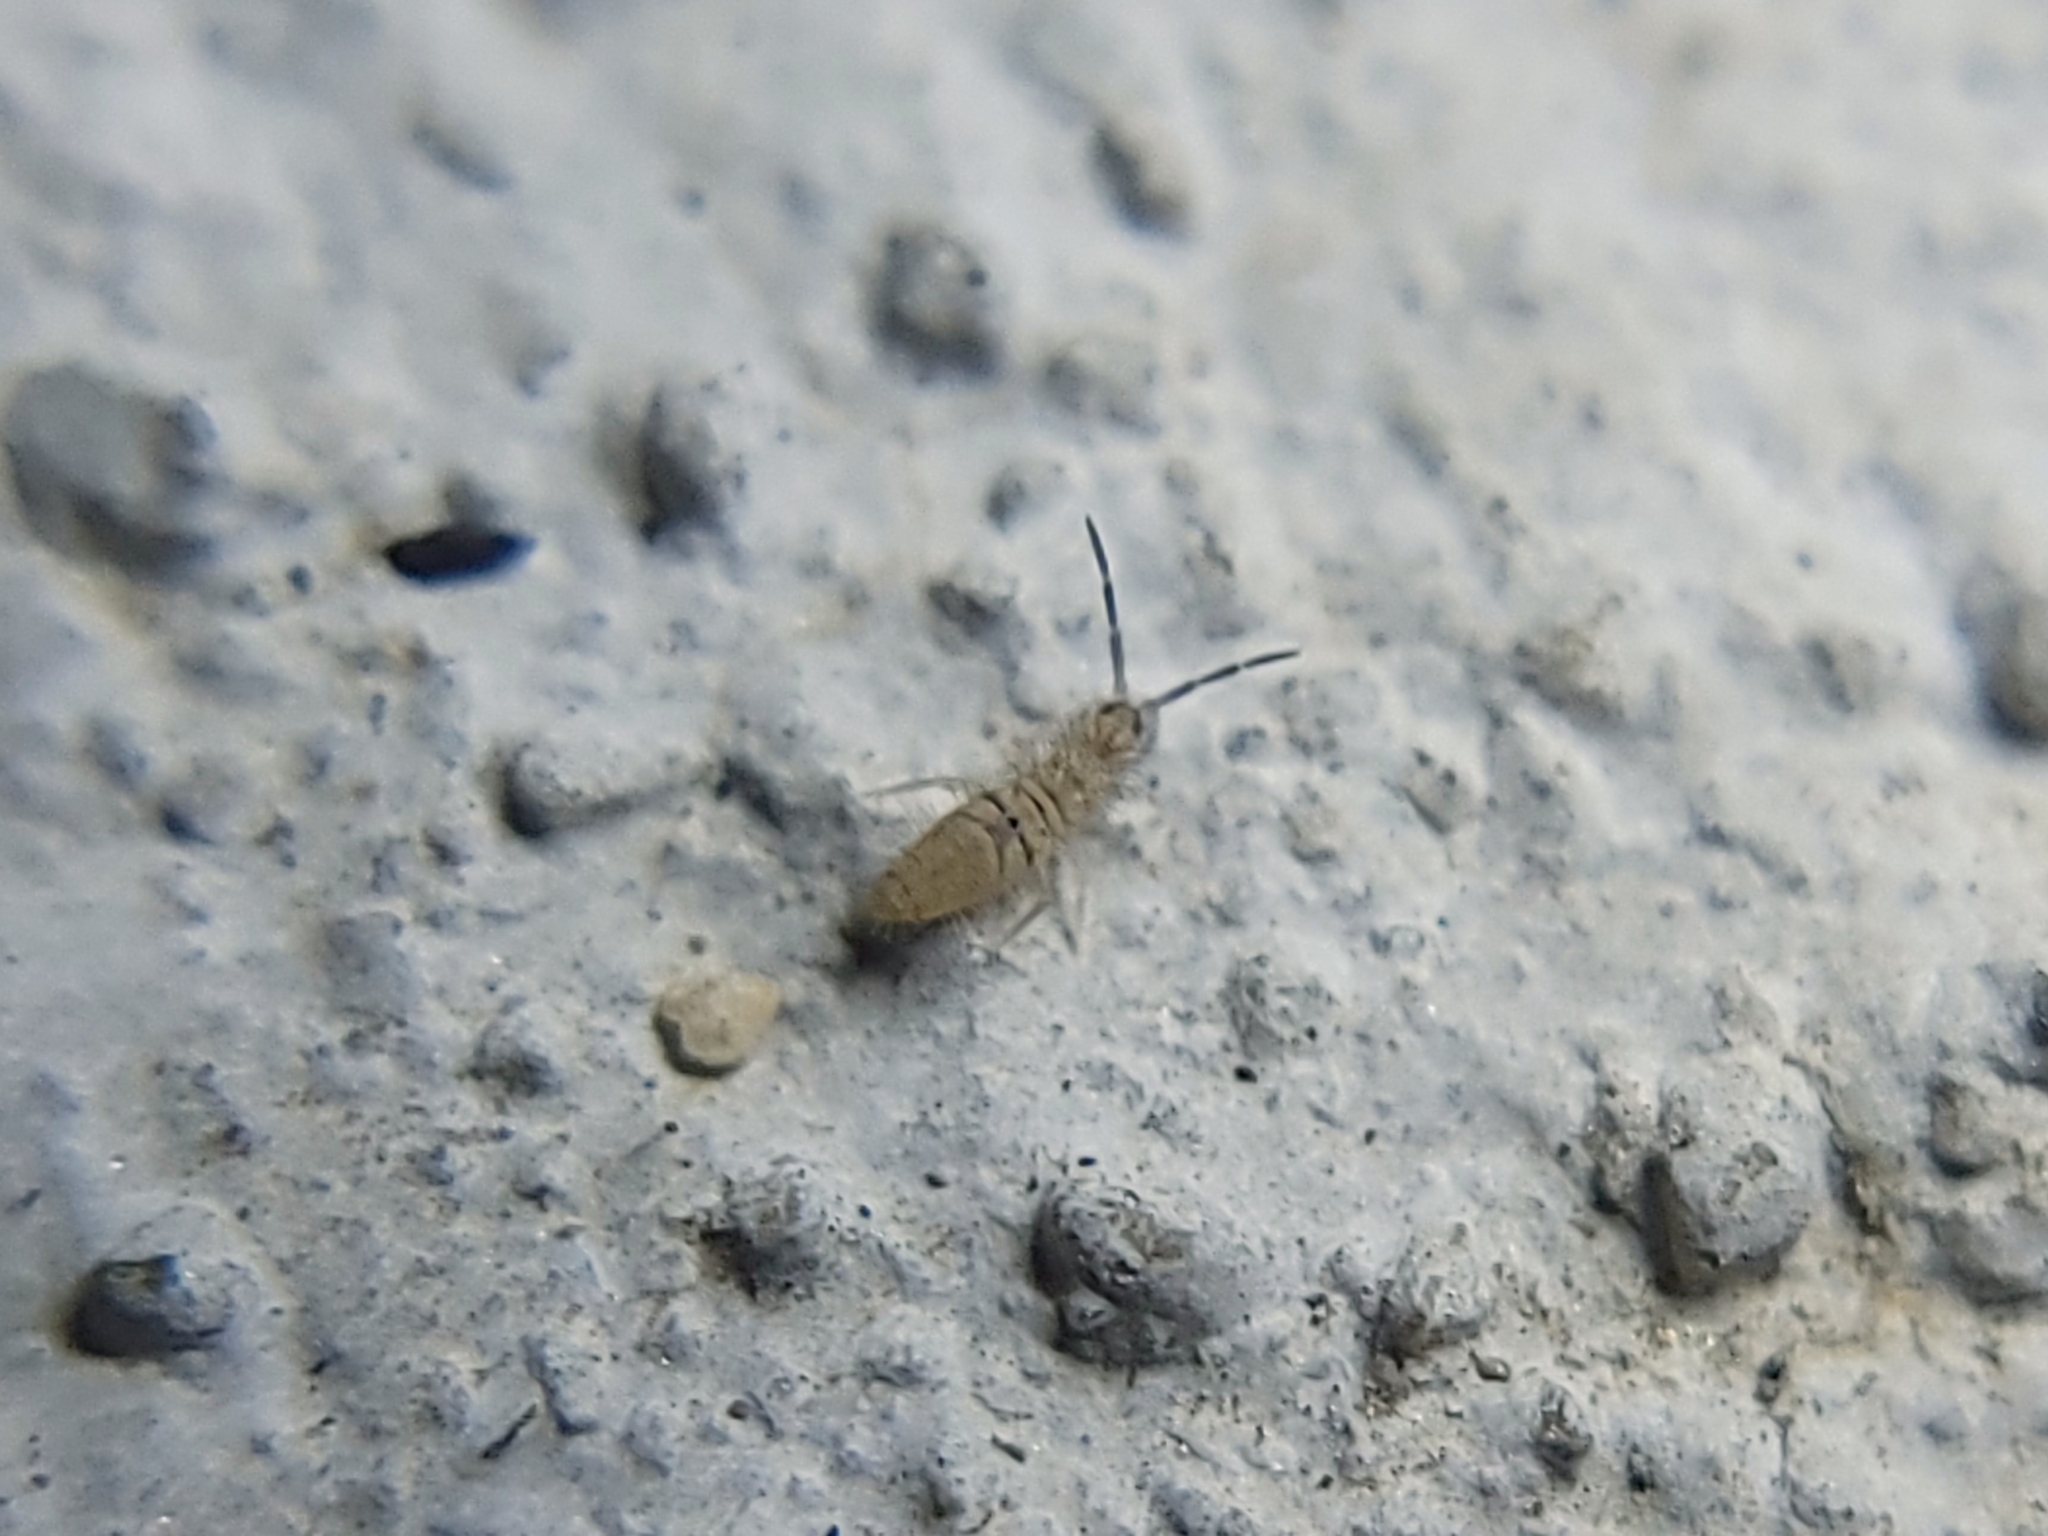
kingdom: Animalia
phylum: Arthropoda
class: Collembola
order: Entomobryomorpha
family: Entomobryidae
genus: Entomobrya
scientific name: Entomobrya unostrigata
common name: Springtail
